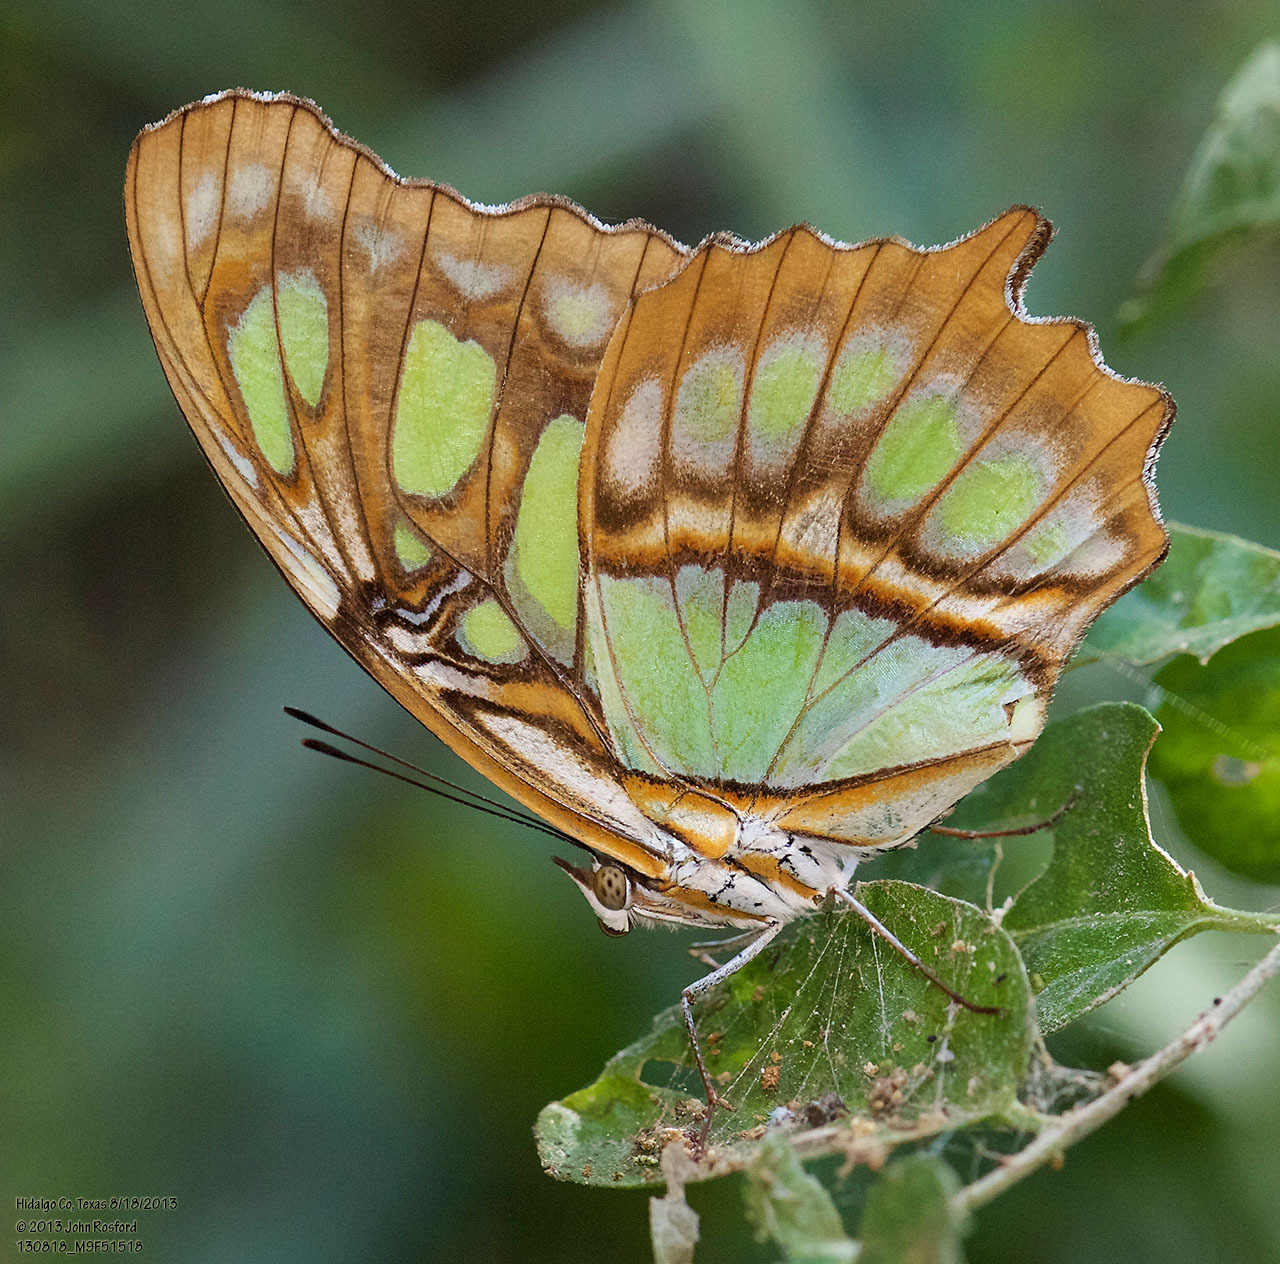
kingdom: Animalia
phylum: Arthropoda
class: Insecta
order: Lepidoptera
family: Nymphalidae
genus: Siproeta
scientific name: Siproeta stelenes
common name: Malachite
